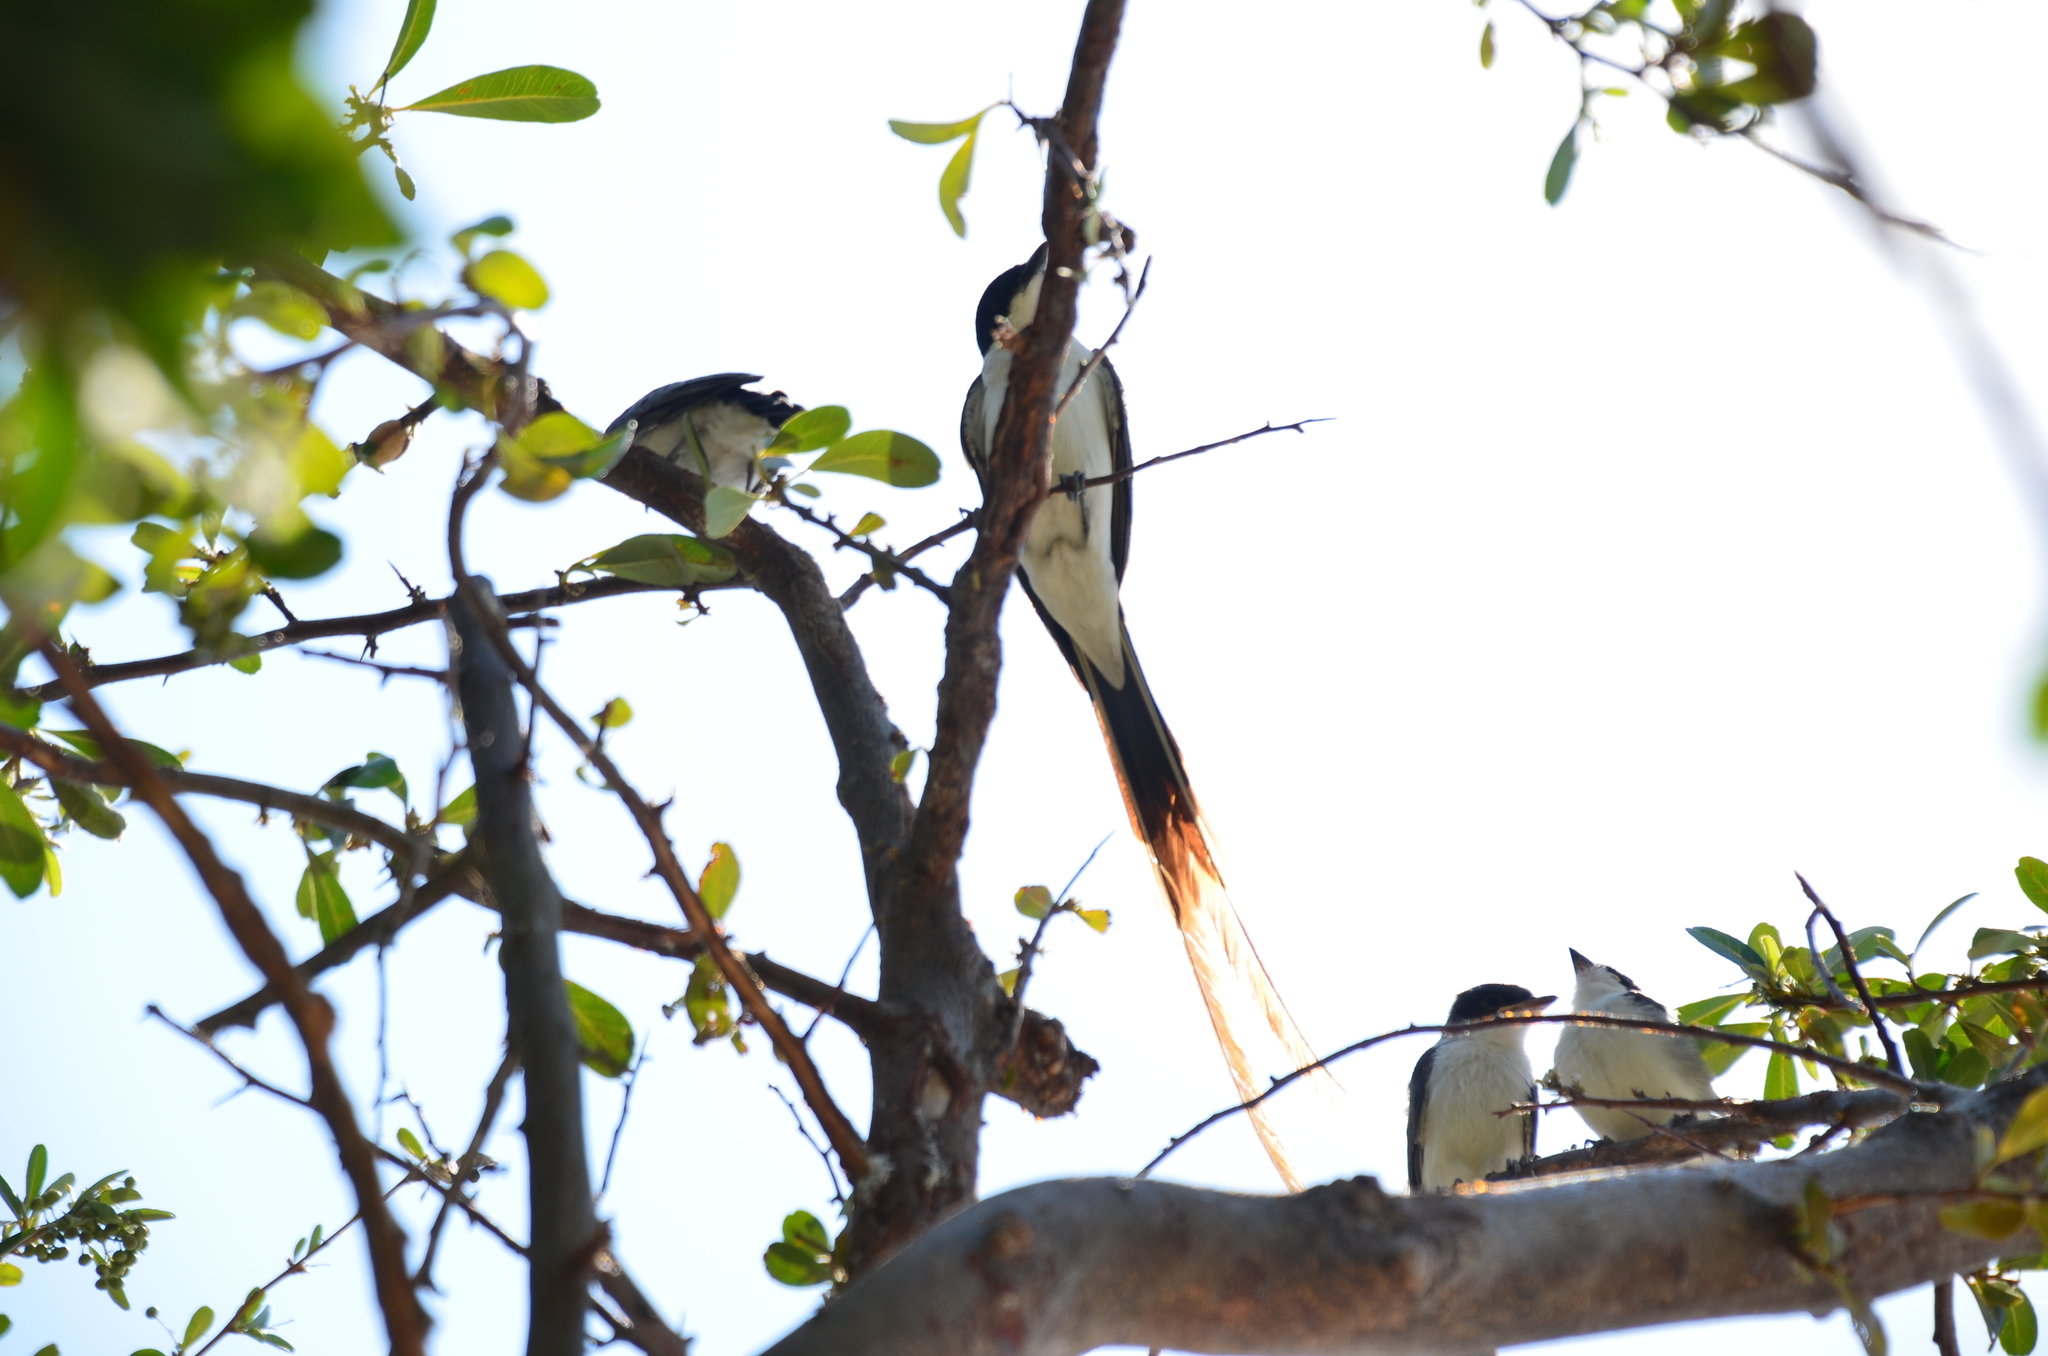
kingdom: Animalia
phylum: Chordata
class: Aves
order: Passeriformes
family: Tyrannidae
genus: Tyrannus
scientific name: Tyrannus savana
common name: Fork-tailed flycatcher
